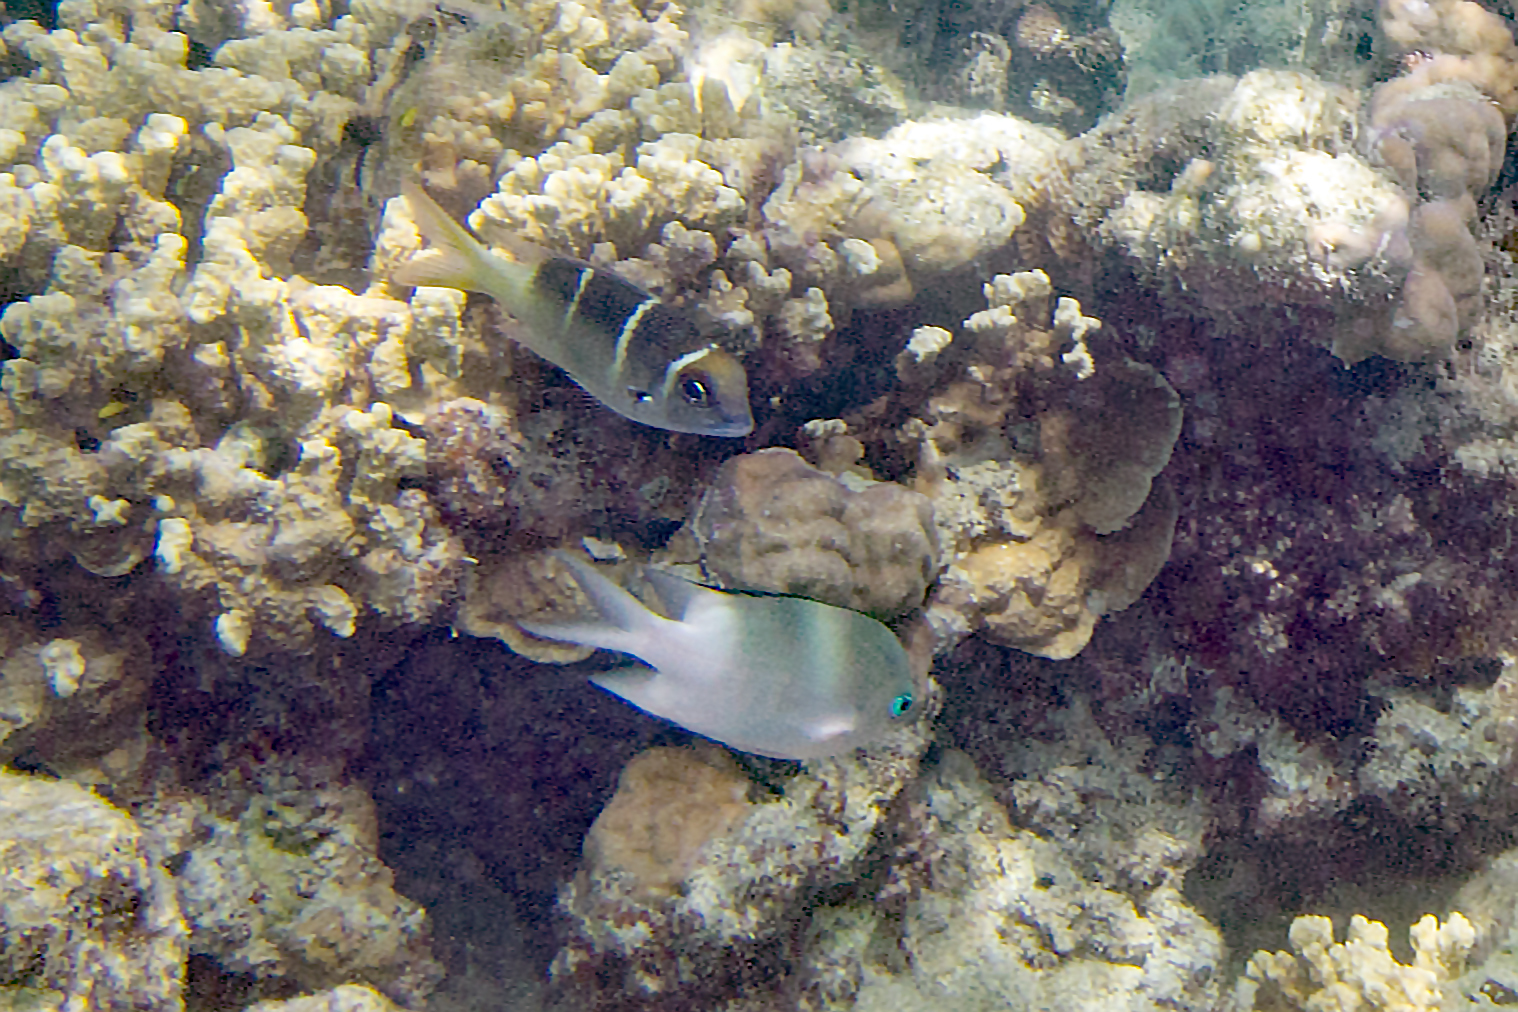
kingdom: Animalia
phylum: Chordata
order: Perciformes
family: Pomacentridae
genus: Acanthochromis
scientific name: Acanthochromis polyacanthus
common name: Spiny chromis
